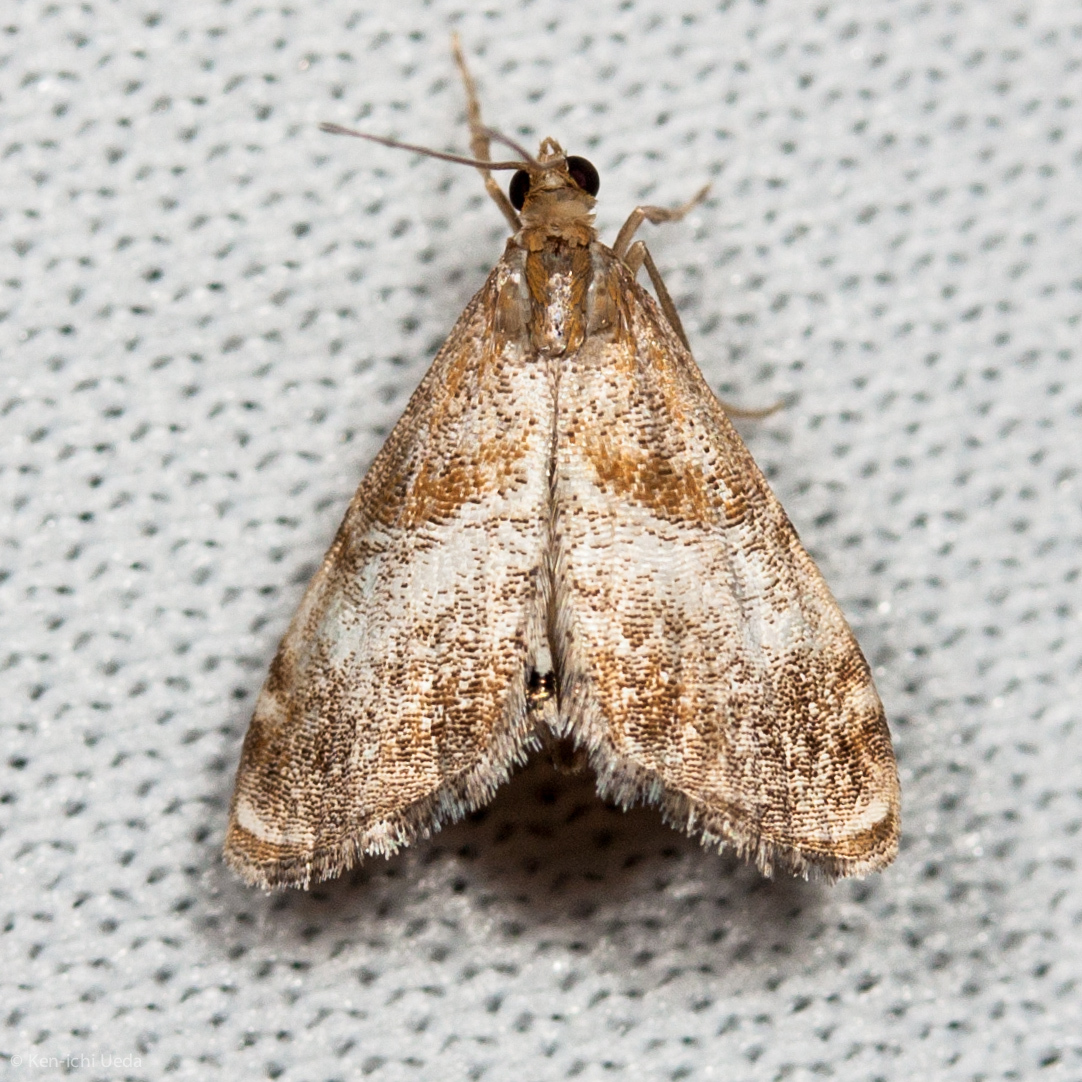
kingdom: Animalia
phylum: Arthropoda
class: Insecta
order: Lepidoptera
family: Crambidae
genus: Dicymolomia
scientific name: Dicymolomia metalliferalis
